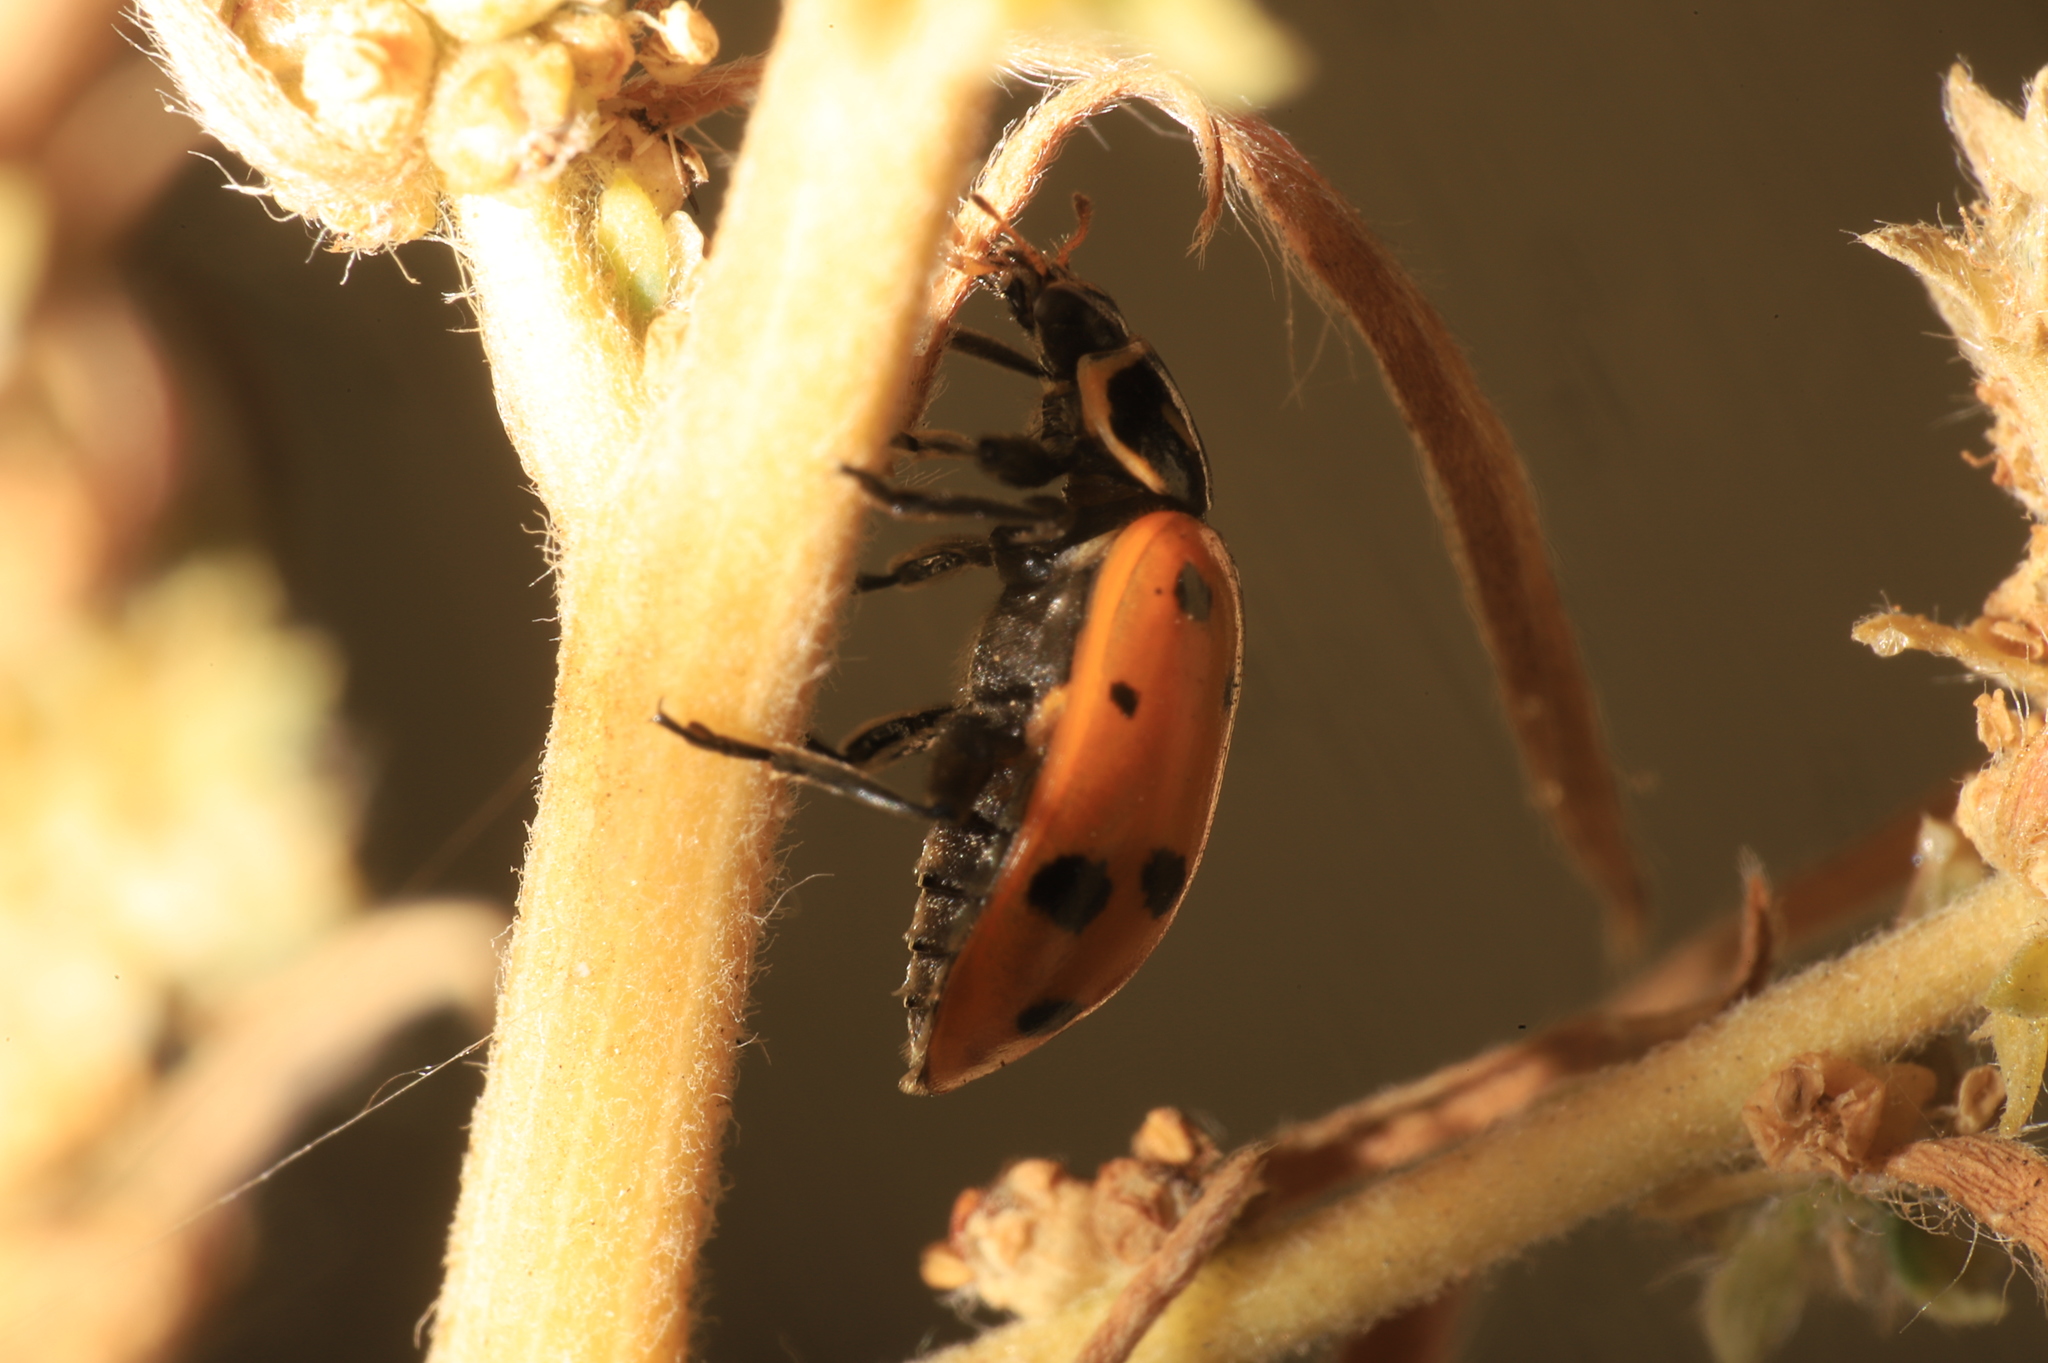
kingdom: Animalia
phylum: Arthropoda
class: Insecta
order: Coleoptera
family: Coccinellidae
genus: Hippodamia
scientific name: Hippodamia convergens
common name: Convergent lady beetle
